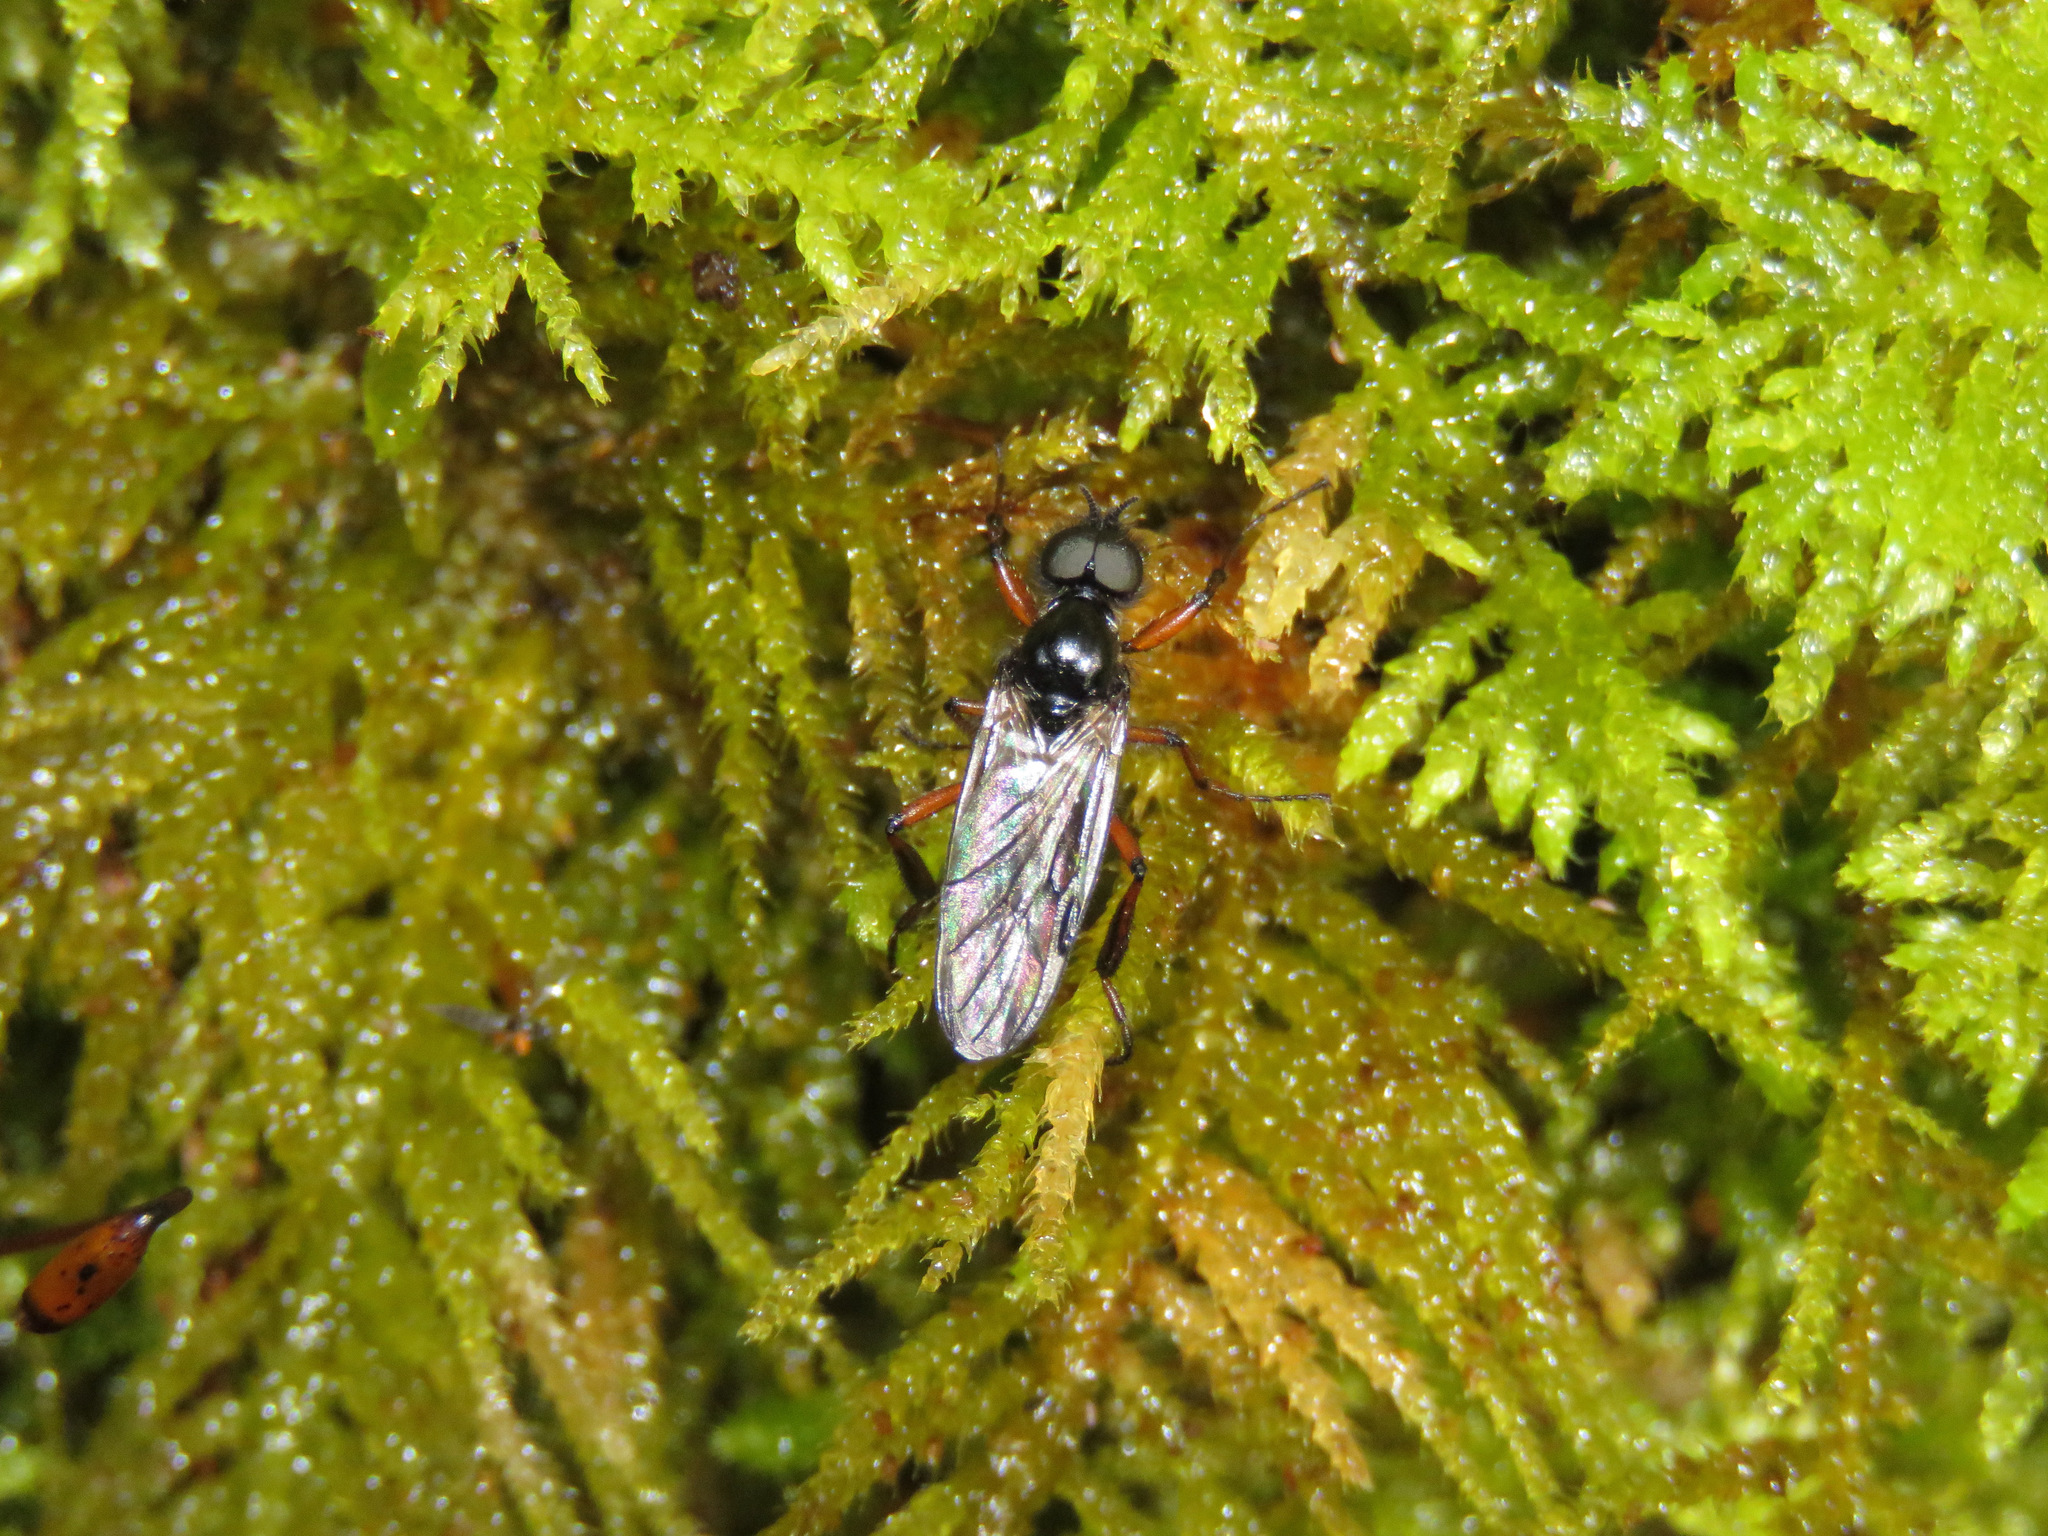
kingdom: Animalia
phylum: Arthropoda
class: Insecta
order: Diptera
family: Bibionidae
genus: Bibio
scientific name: Bibio xanthopus
